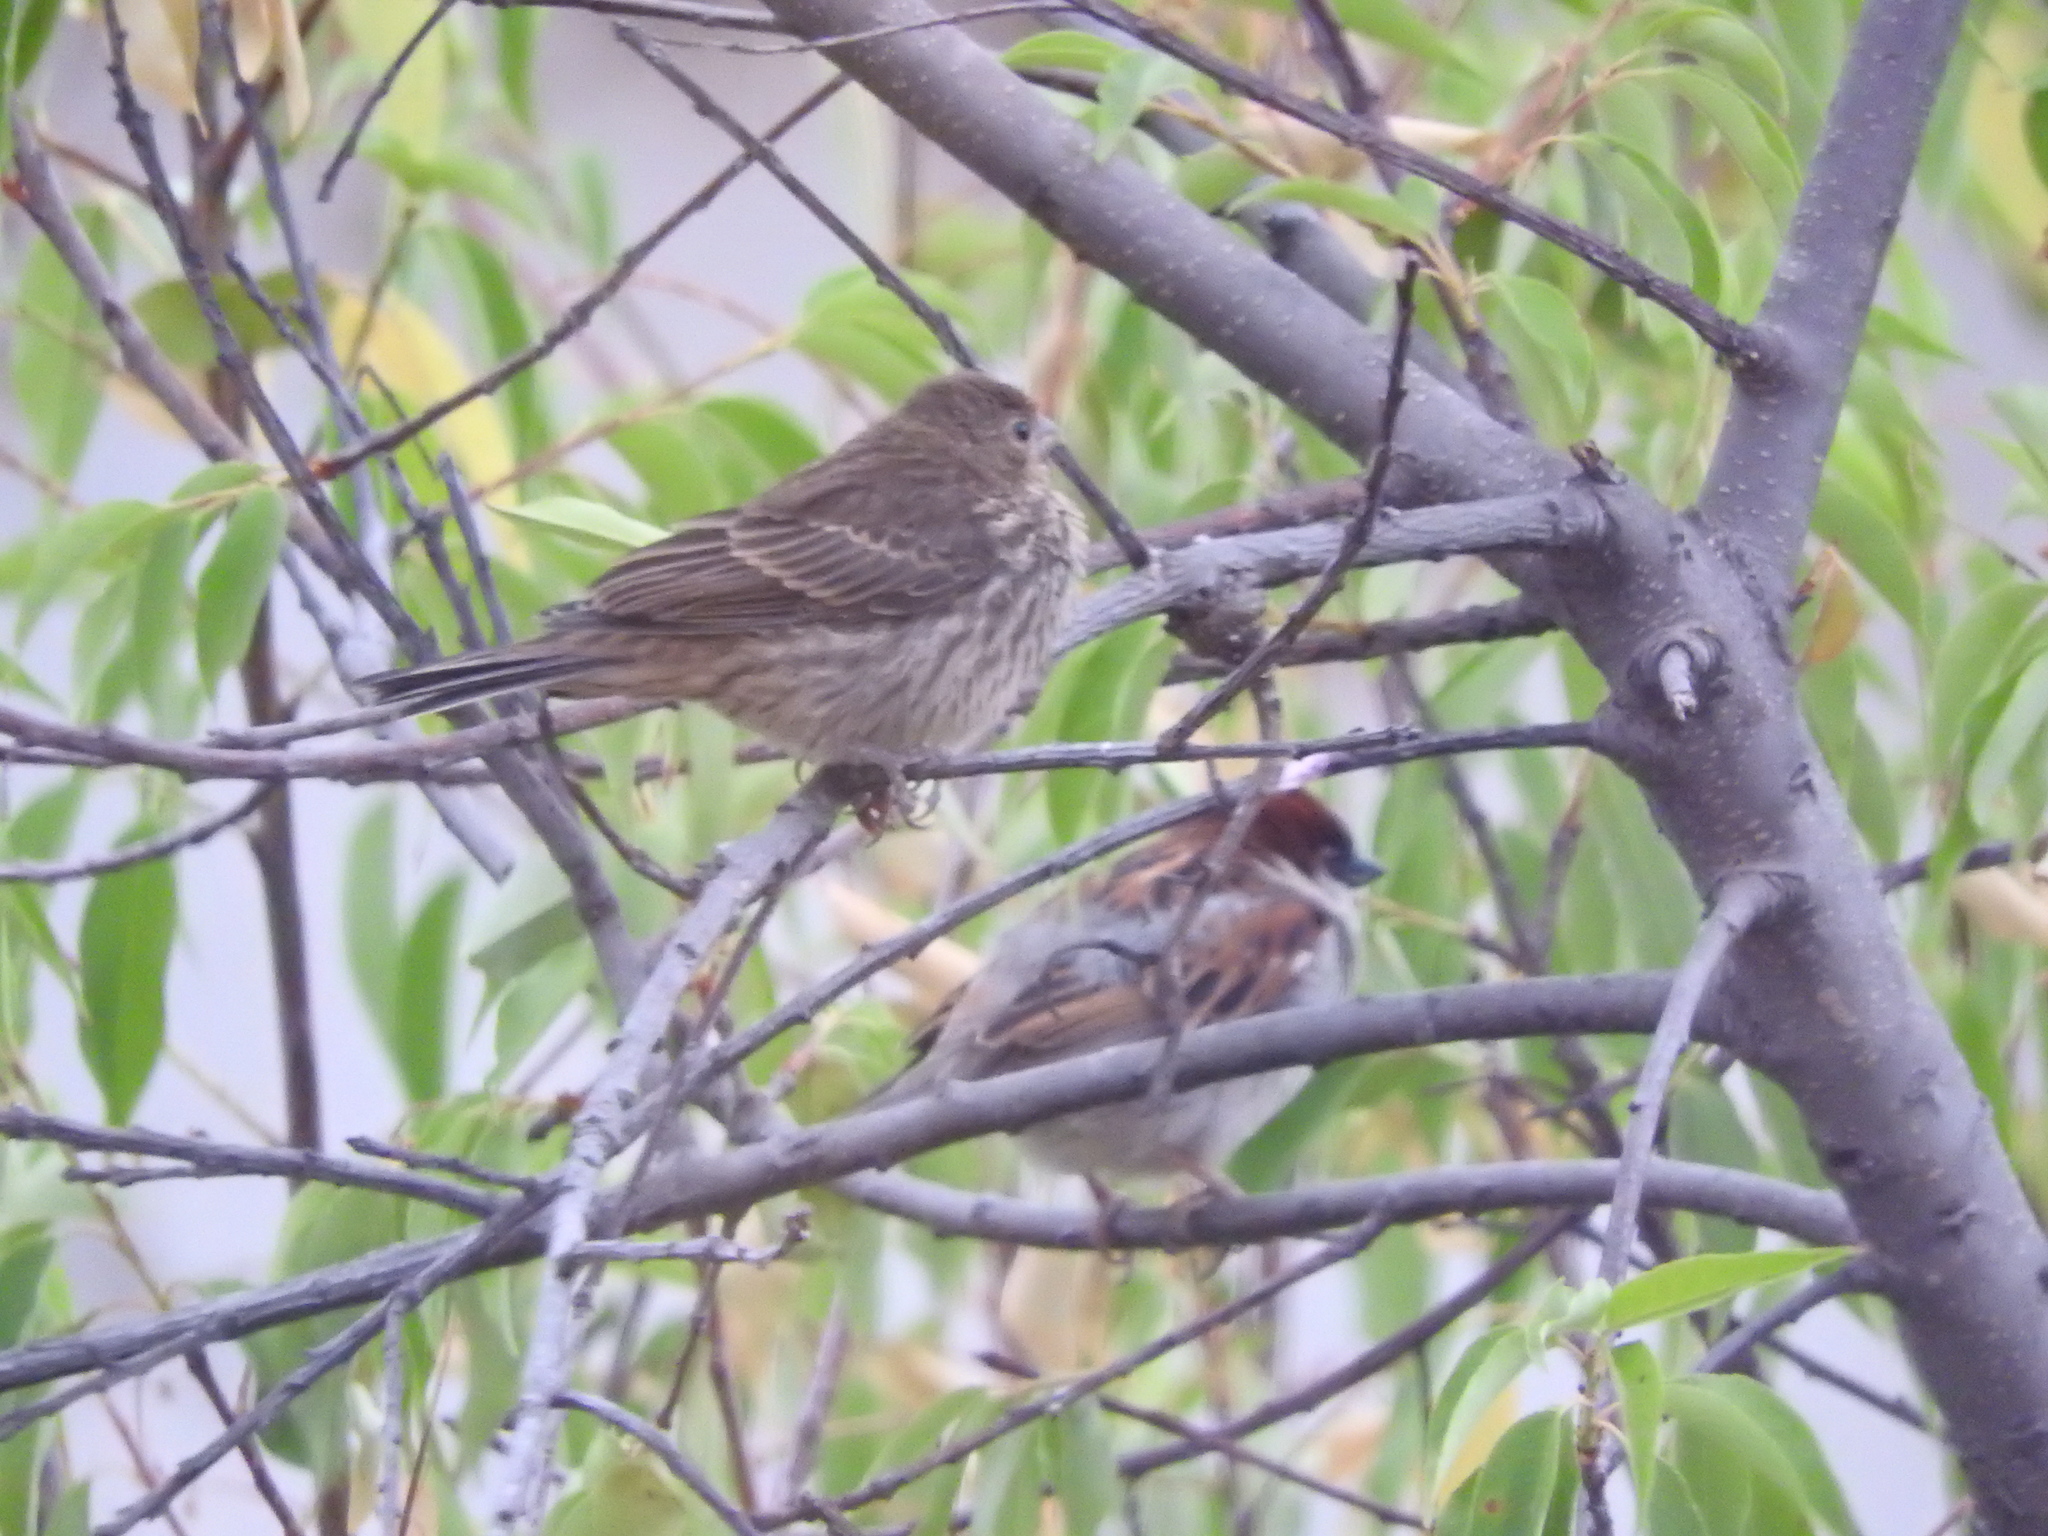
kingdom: Animalia
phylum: Chordata
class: Aves
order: Passeriformes
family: Passeridae
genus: Passer
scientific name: Passer domesticus
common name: House sparrow
